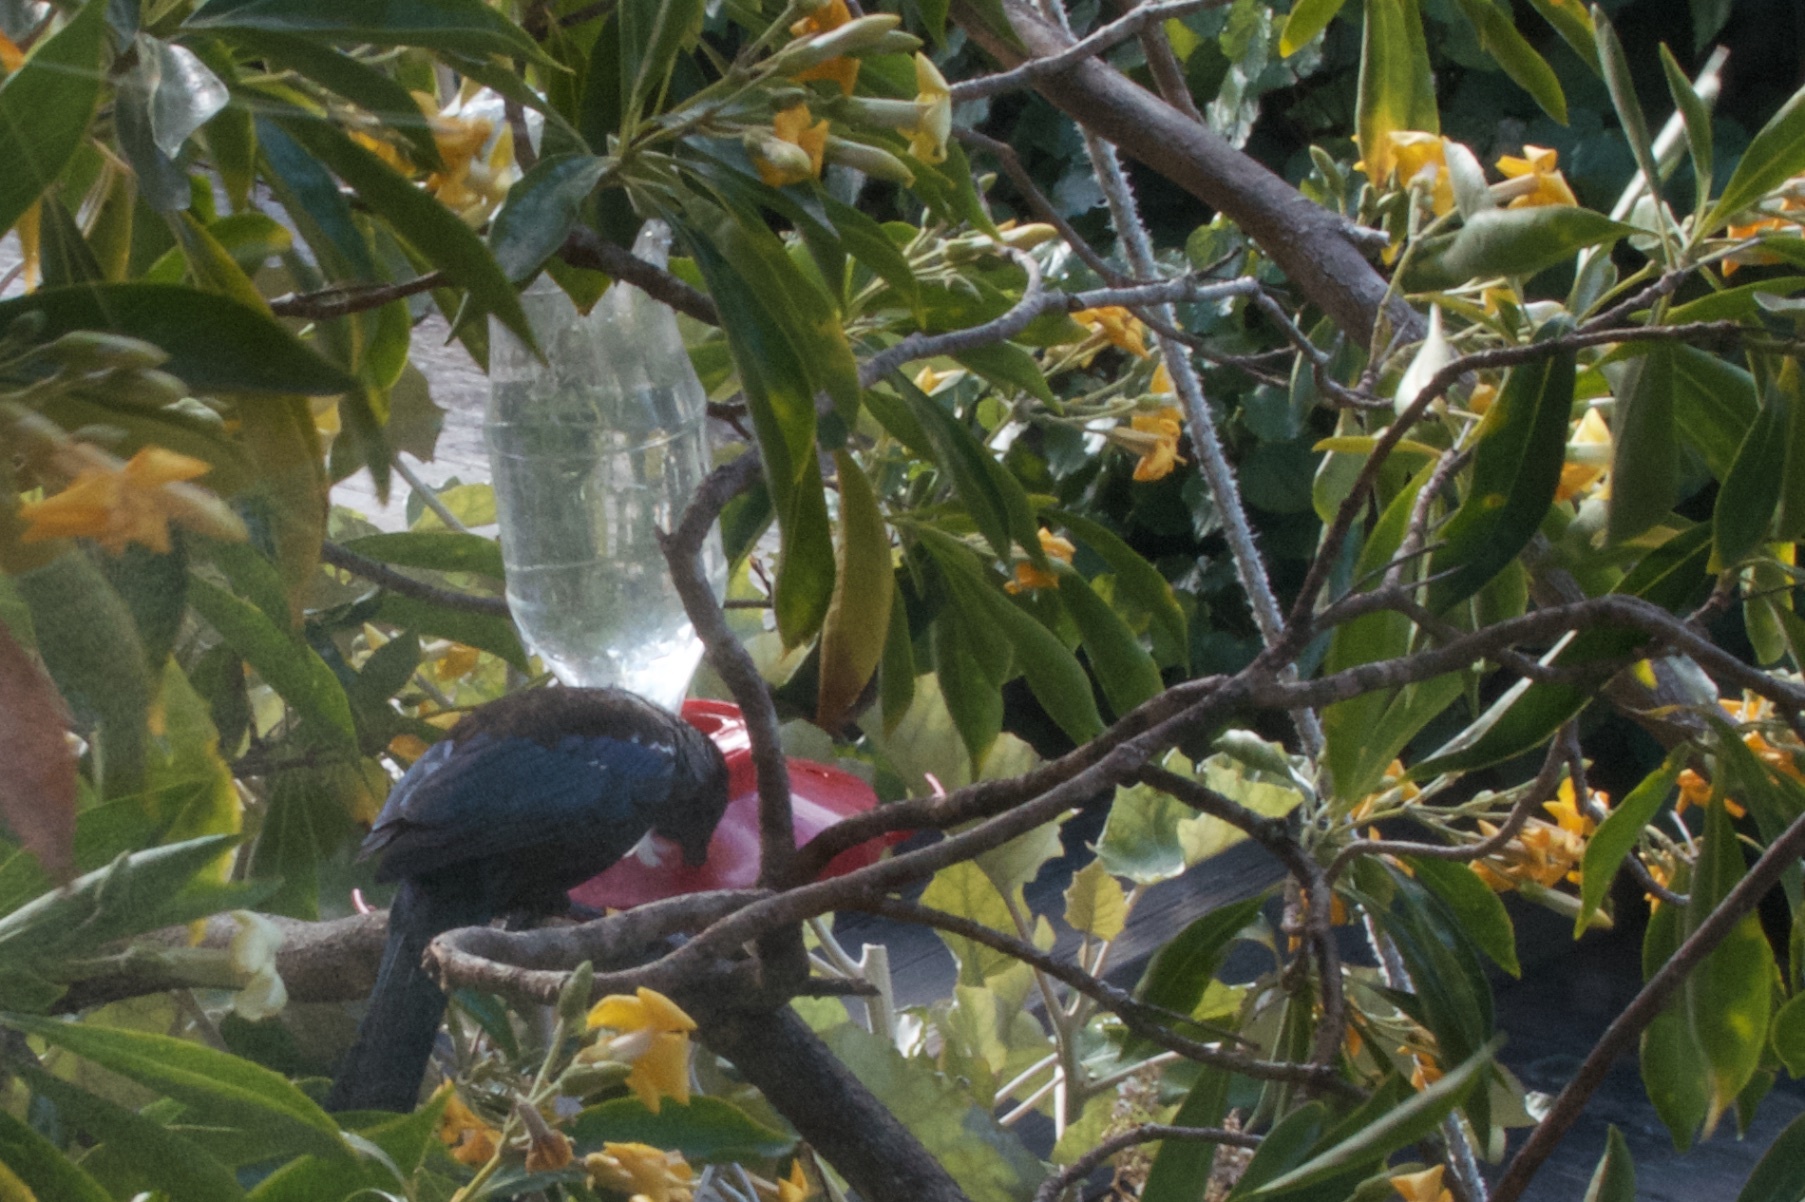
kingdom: Animalia
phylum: Chordata
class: Aves
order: Passeriformes
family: Meliphagidae
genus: Prosthemadera
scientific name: Prosthemadera novaeseelandiae
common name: Tui
